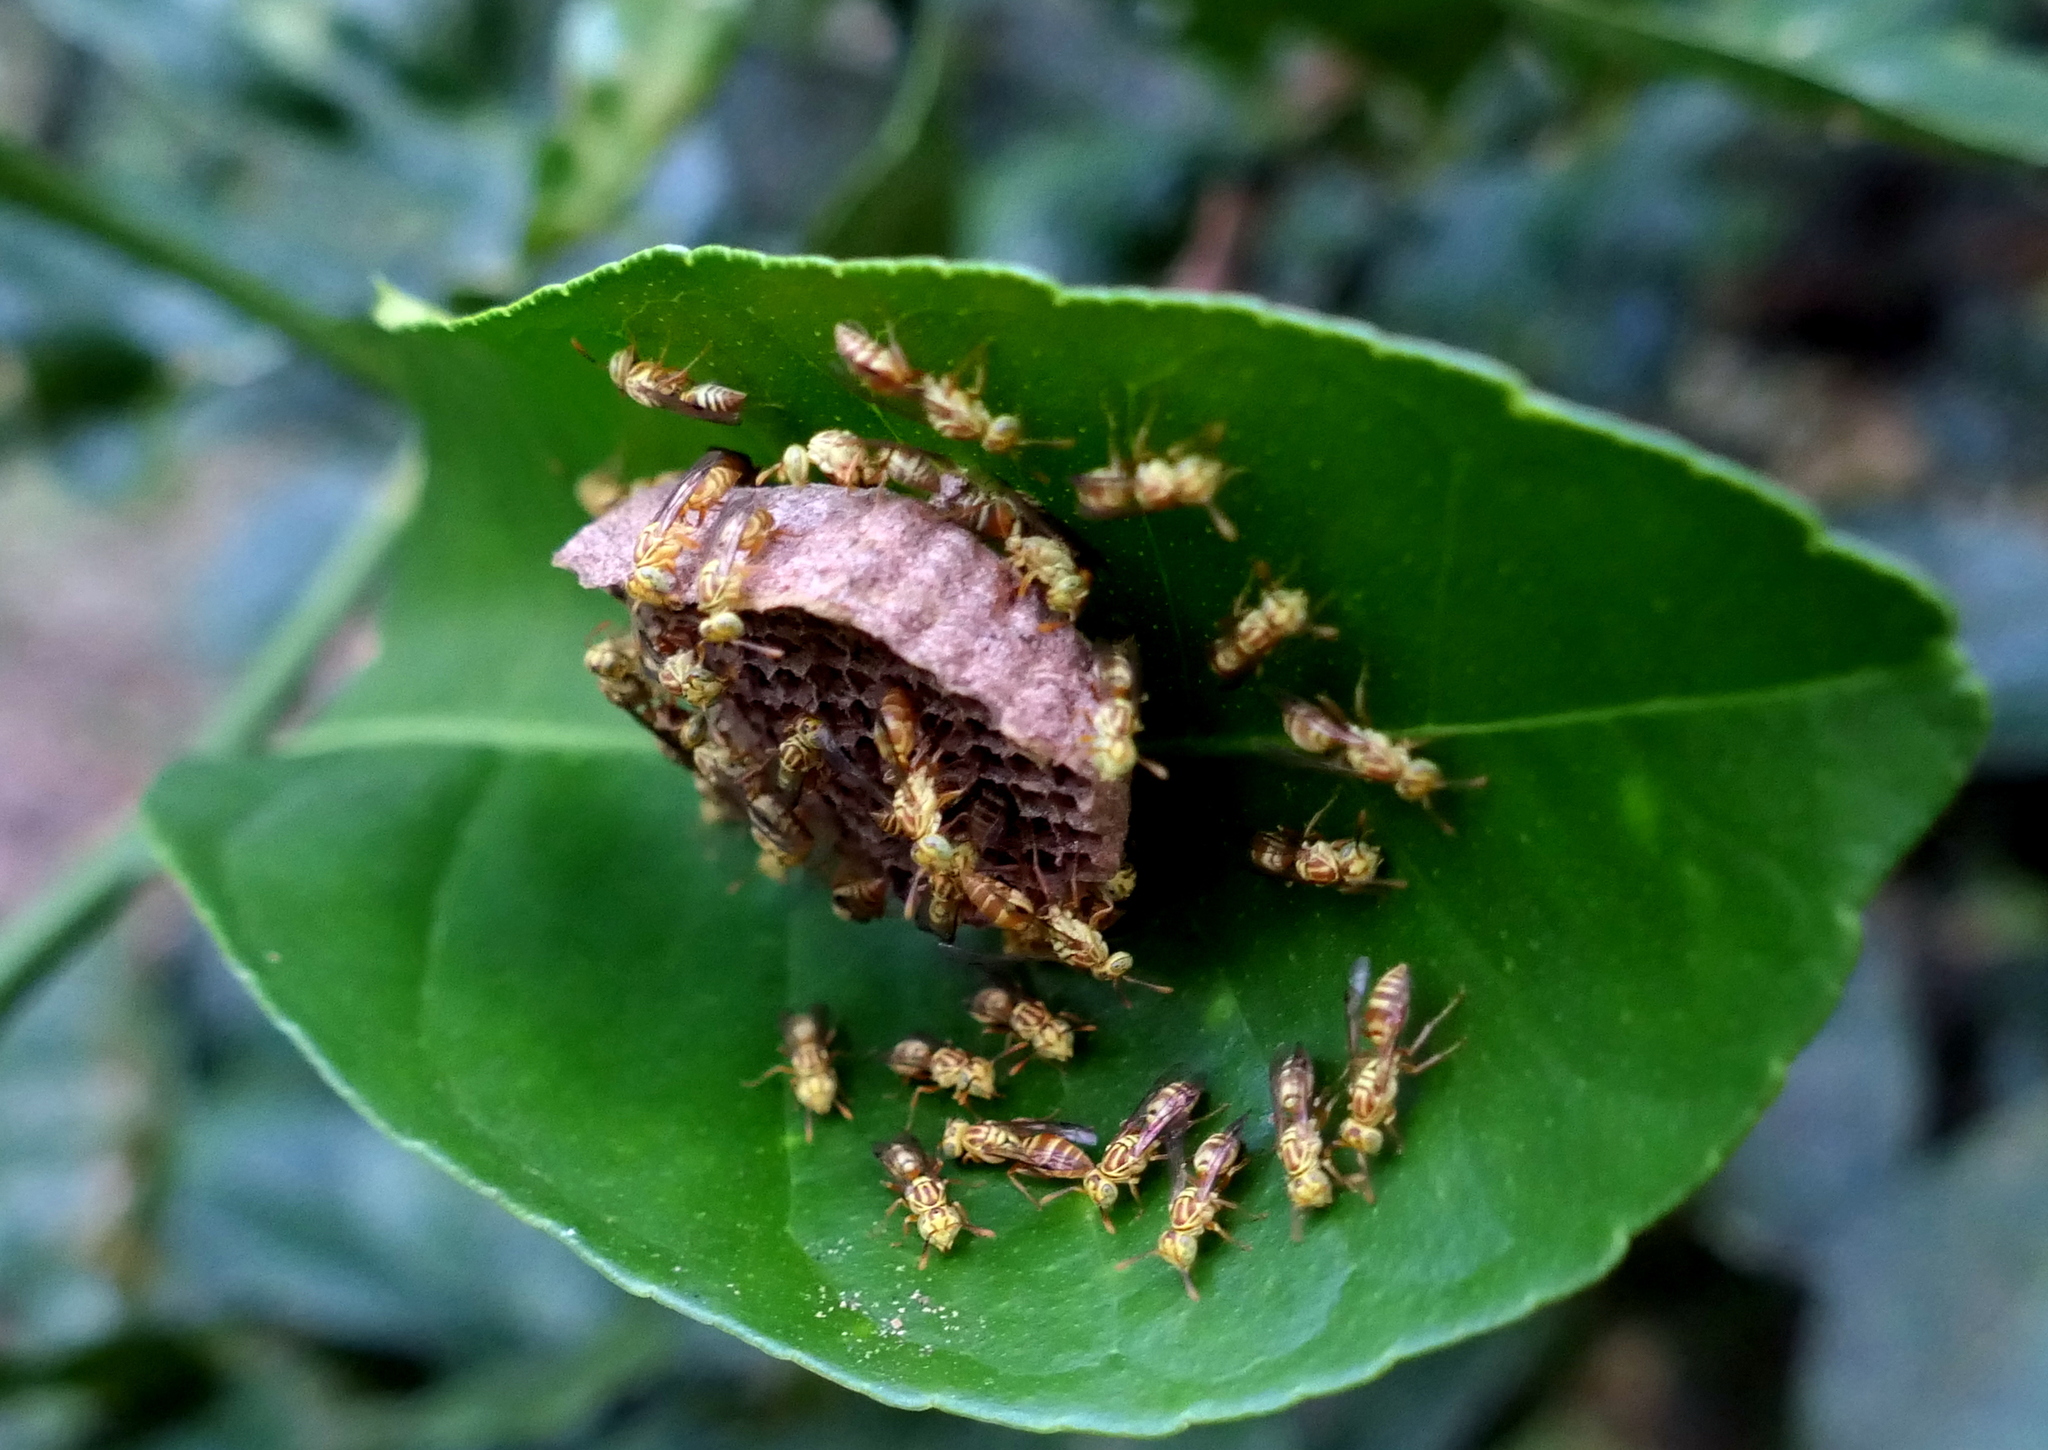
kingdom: Animalia
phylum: Arthropoda
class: Insecta
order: Hymenoptera
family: Vespidae
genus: Protopolybia
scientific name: Protopolybia potiguara
